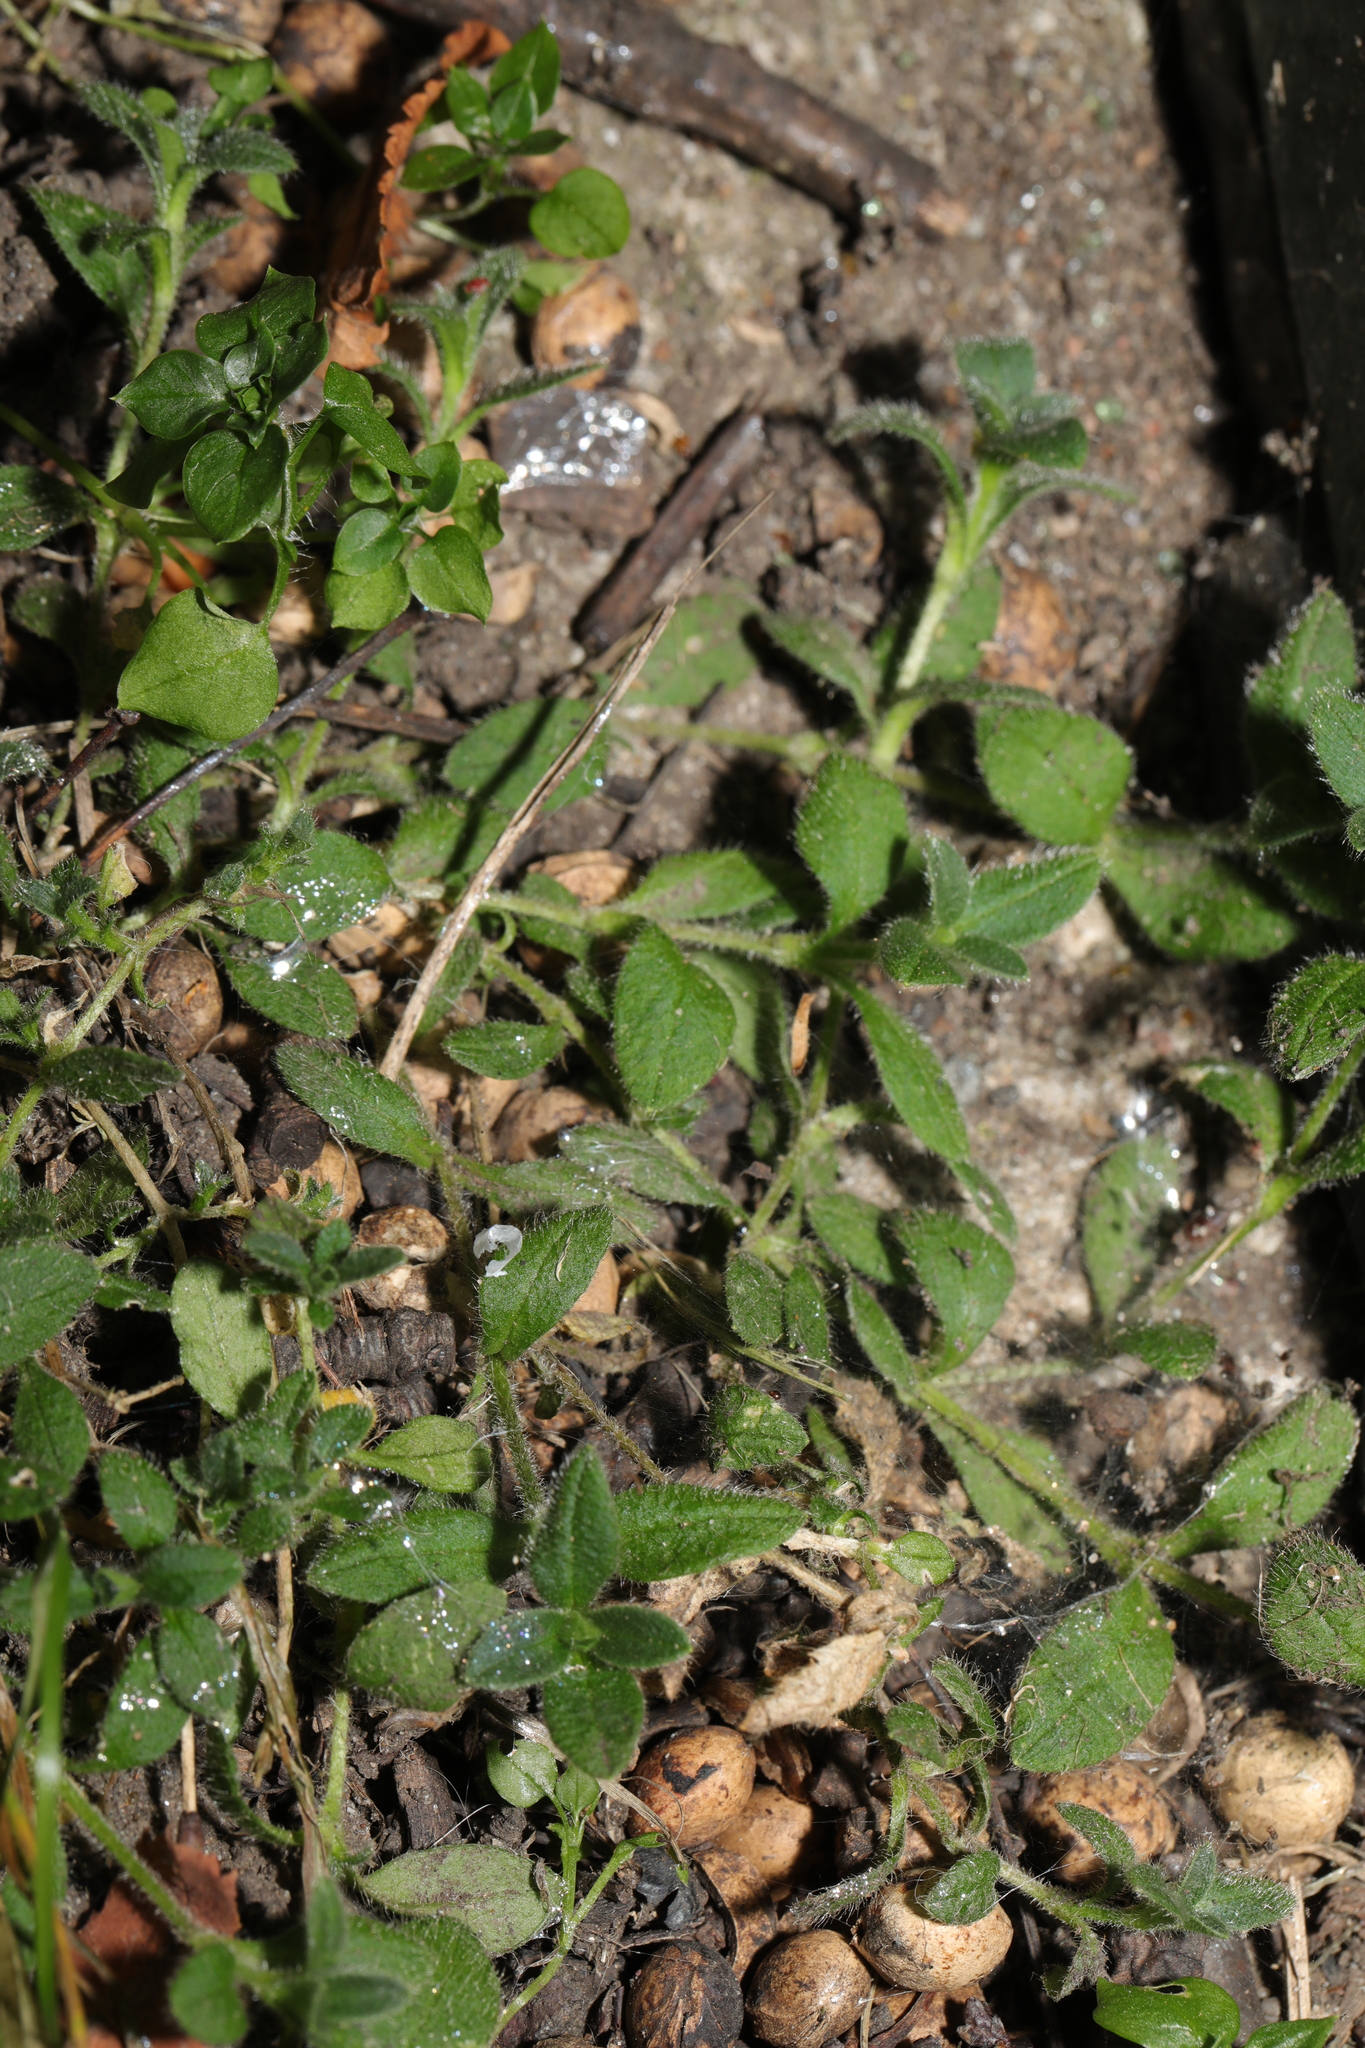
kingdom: Plantae
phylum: Tracheophyta
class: Magnoliopsida
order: Caryophyllales
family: Caryophyllaceae
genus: Cerastium
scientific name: Cerastium fontanum
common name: Common mouse-ear
